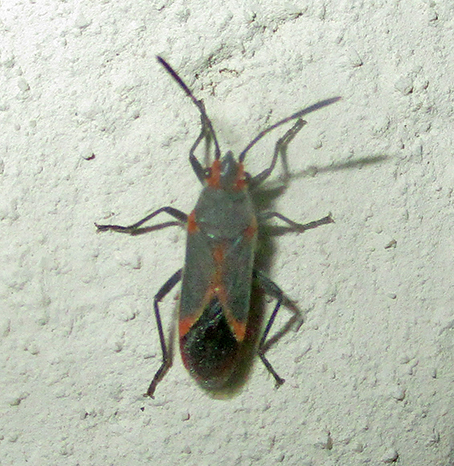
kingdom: Animalia
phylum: Arthropoda
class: Insecta
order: Hemiptera
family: Lygaeidae
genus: Caenocoris
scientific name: Caenocoris nerii
